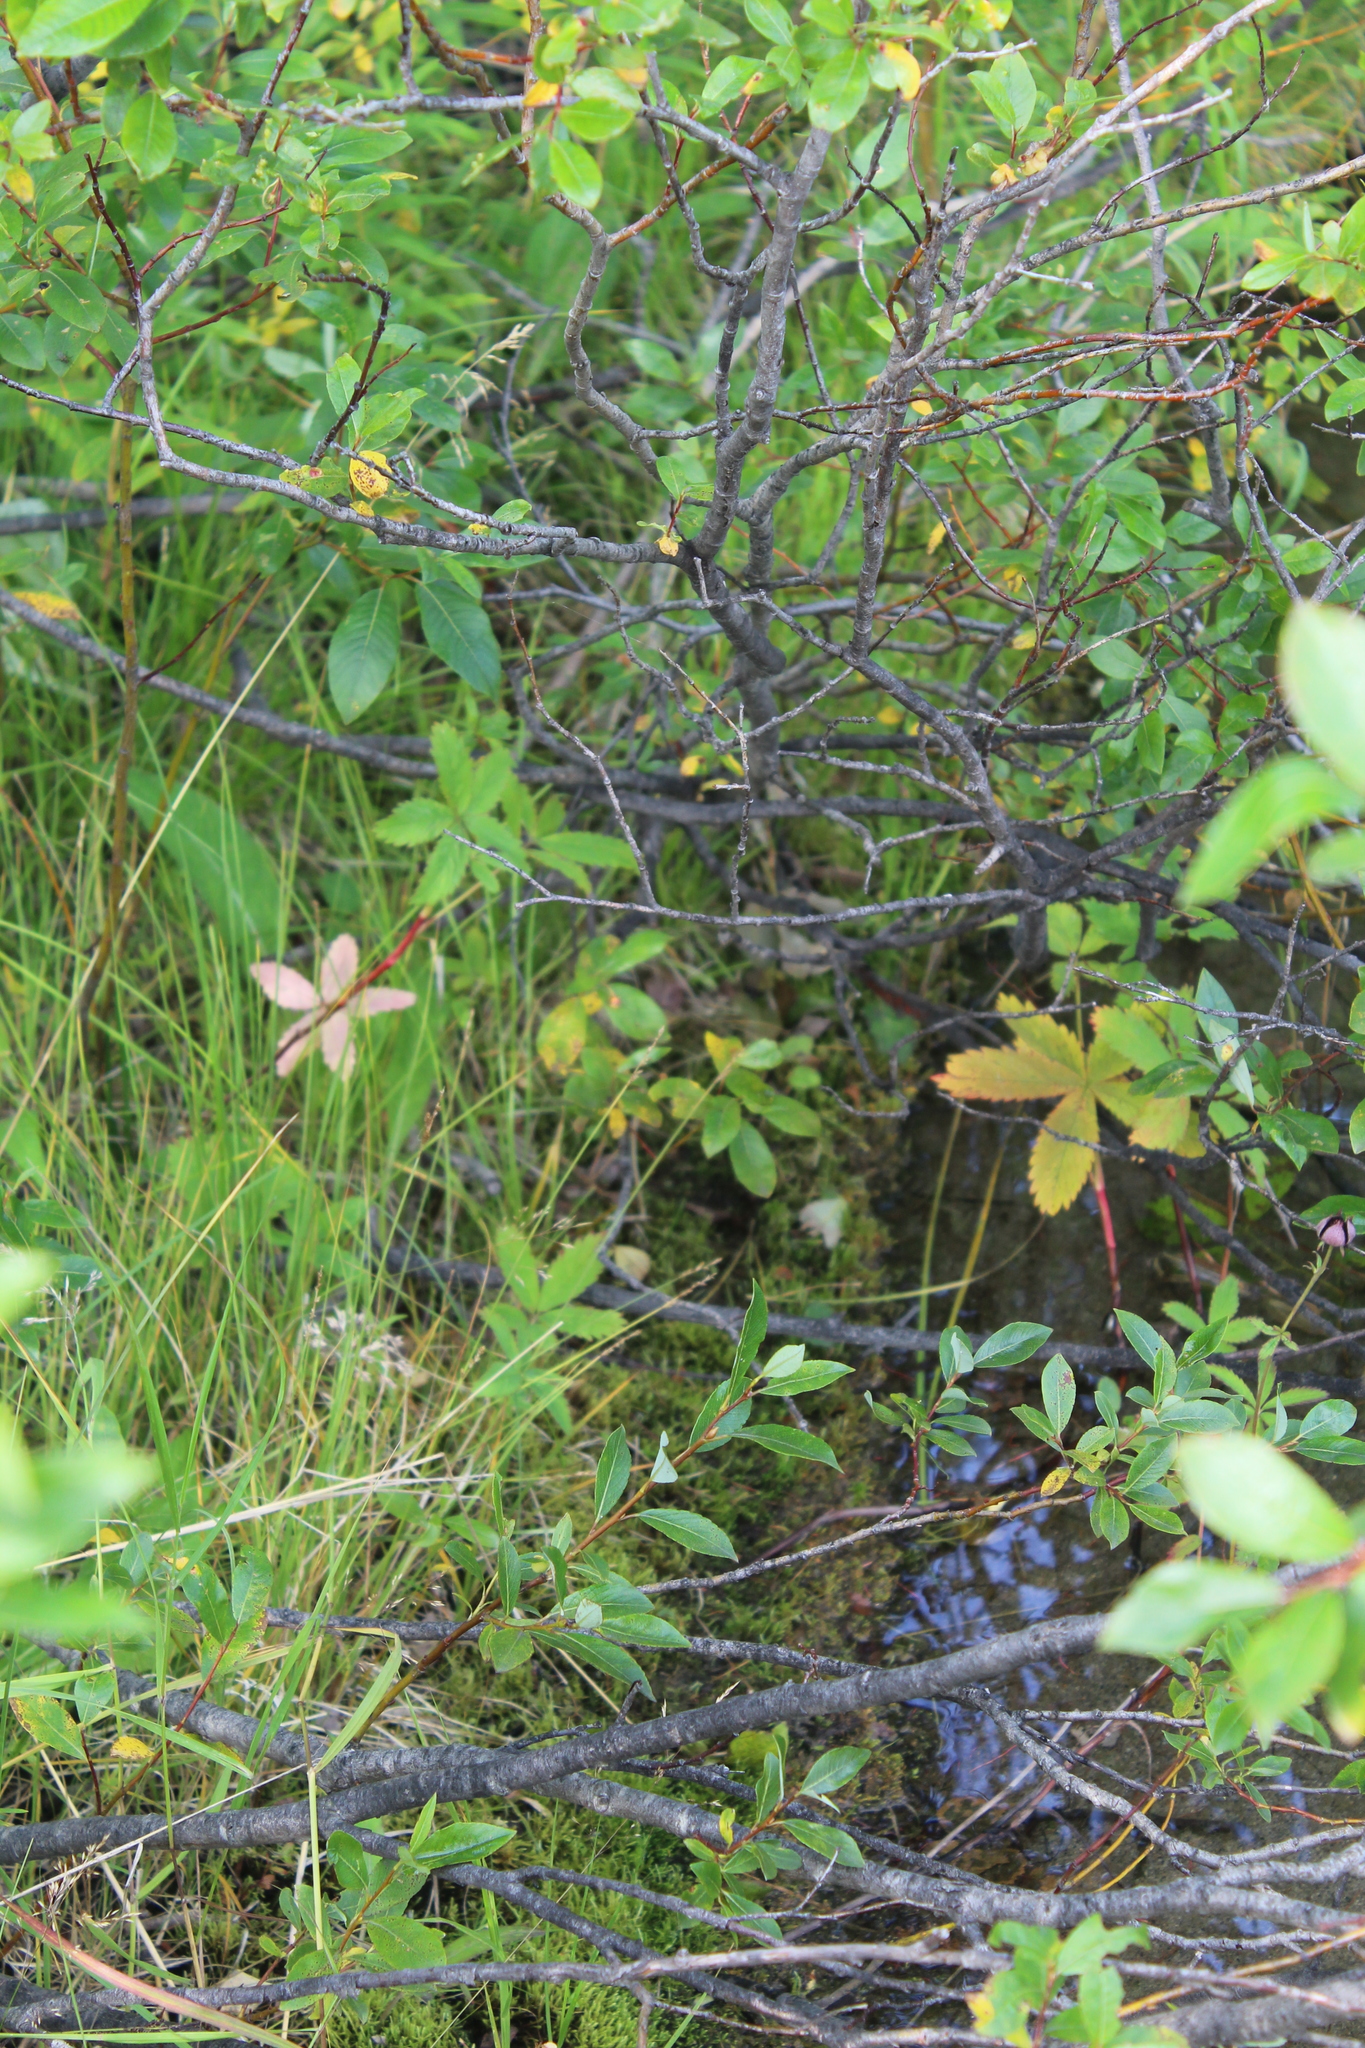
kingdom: Plantae
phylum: Tracheophyta
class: Magnoliopsida
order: Rosales
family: Rosaceae
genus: Comarum
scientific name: Comarum palustre
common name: Marsh cinquefoil
